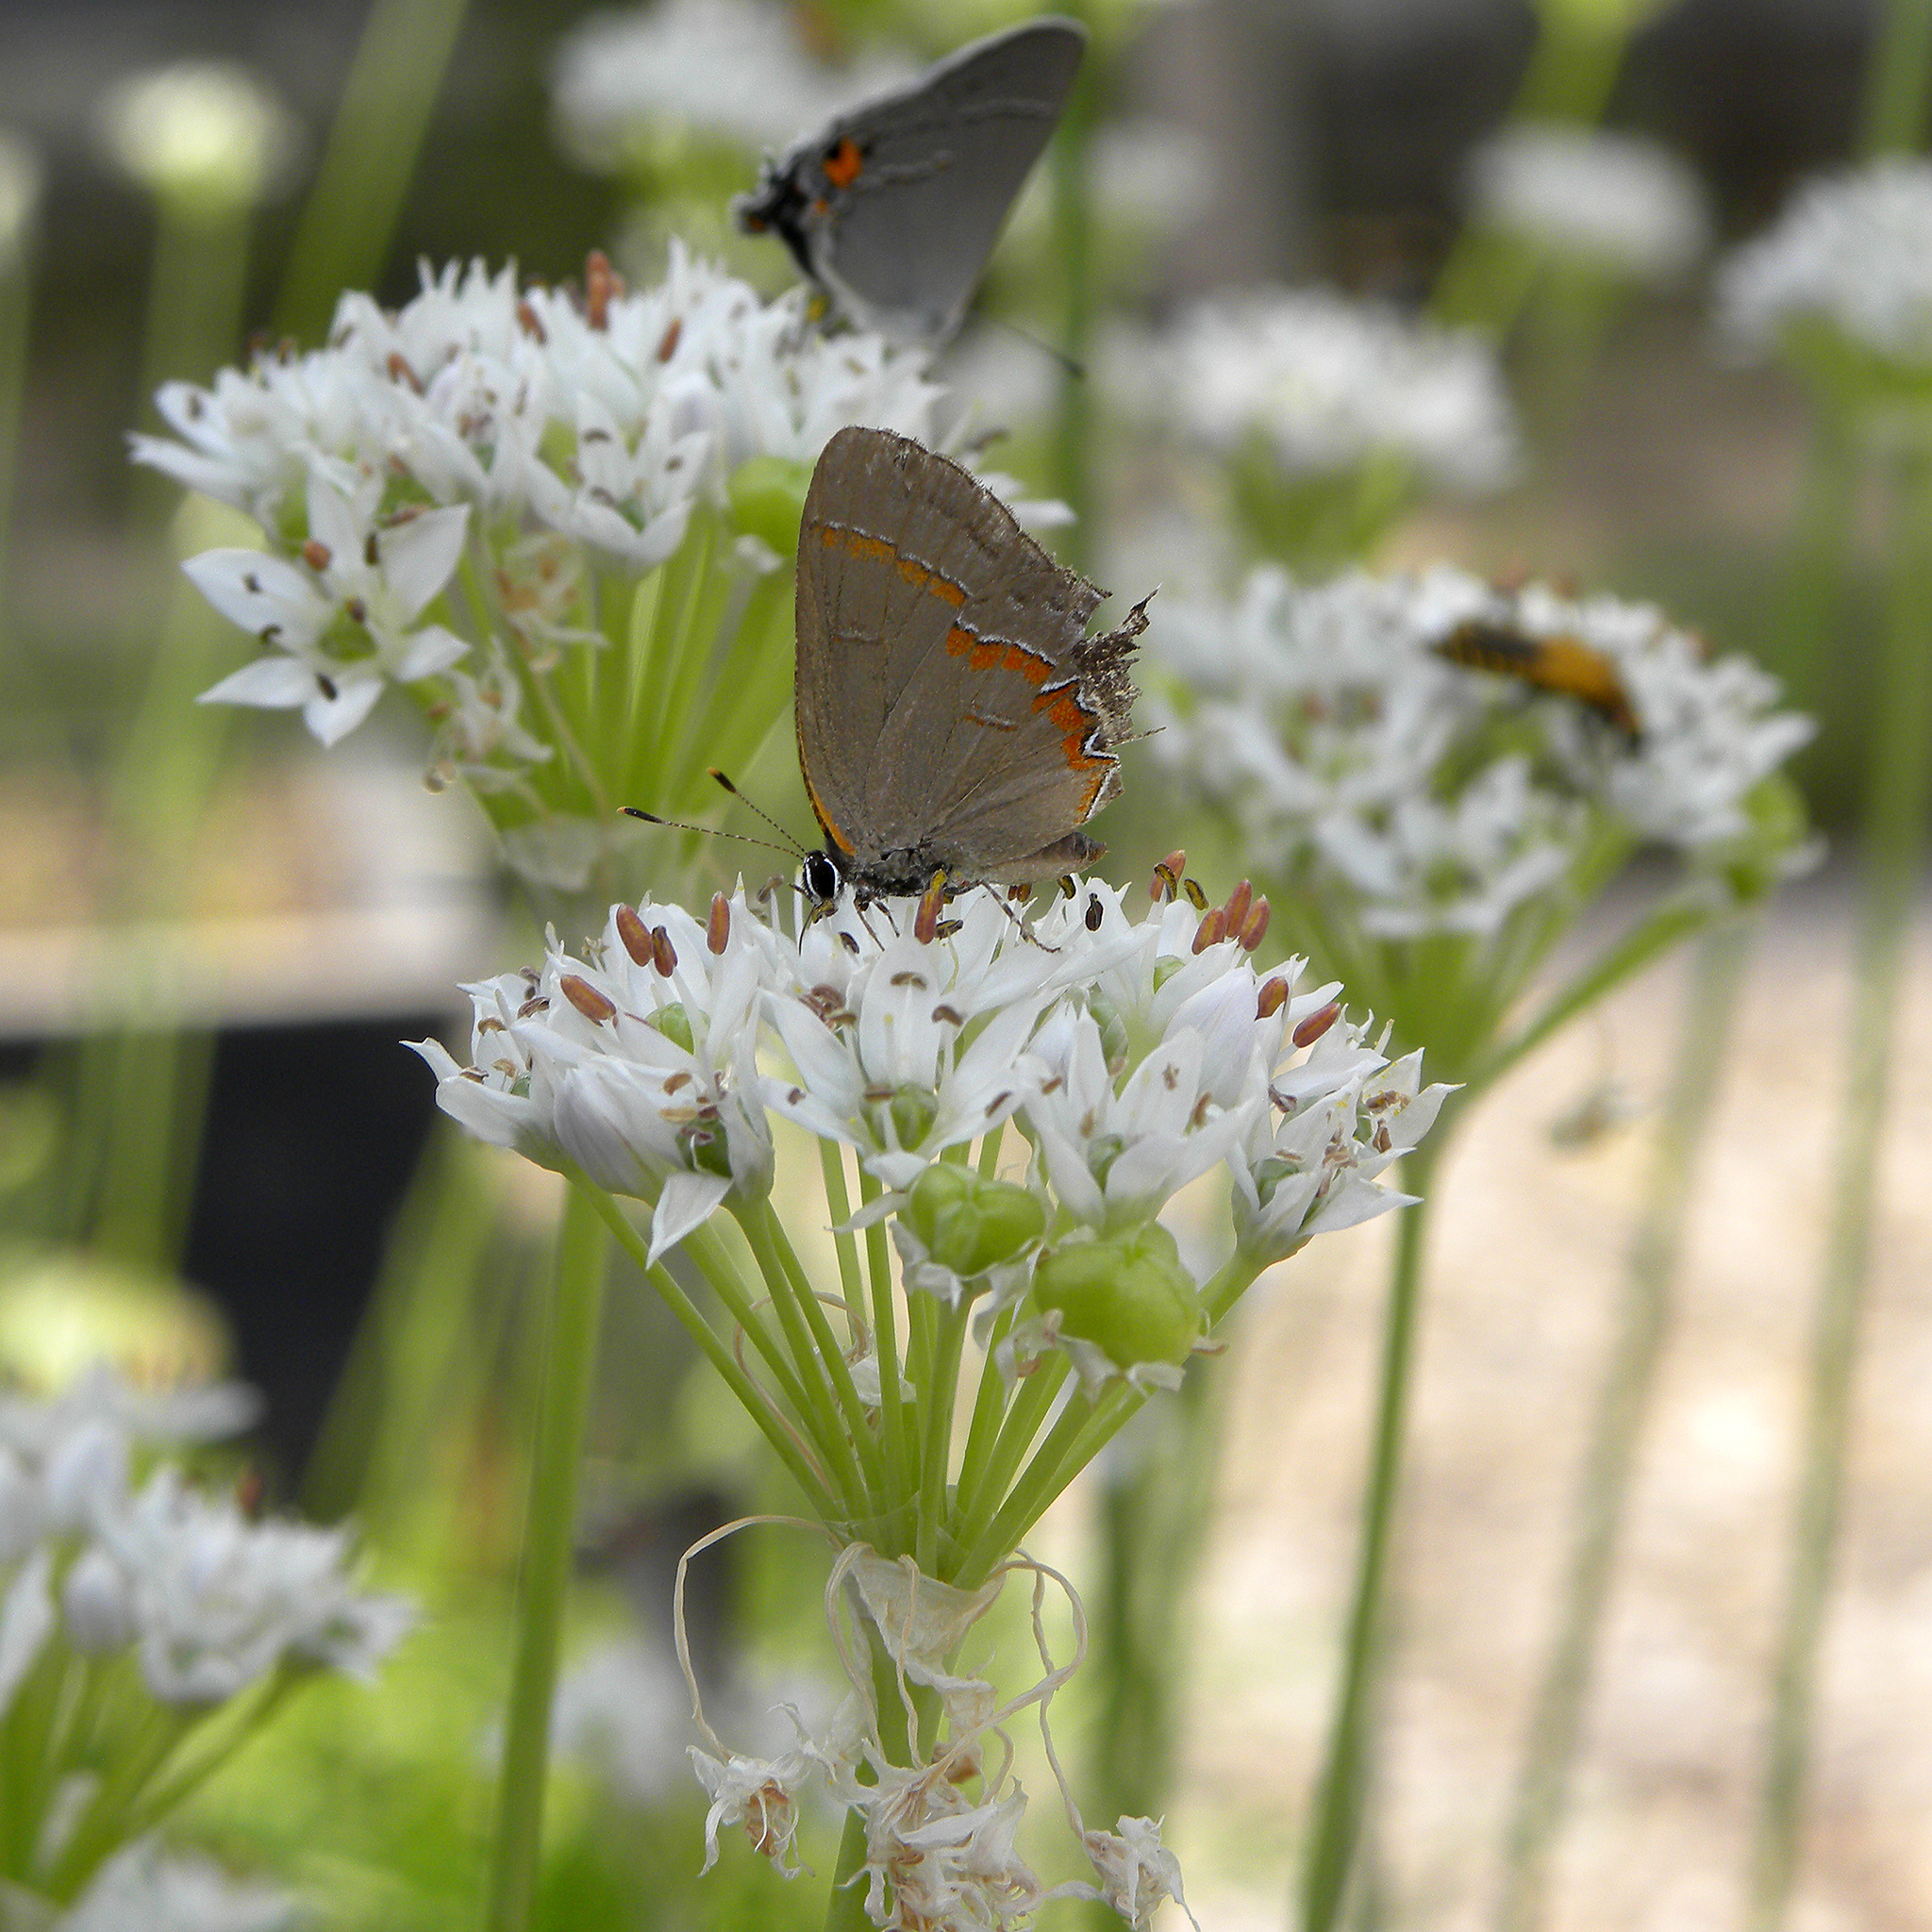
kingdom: Animalia
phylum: Arthropoda
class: Insecta
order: Lepidoptera
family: Lycaenidae
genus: Calycopis
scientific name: Calycopis cecrops
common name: Red-banded hairstreak
